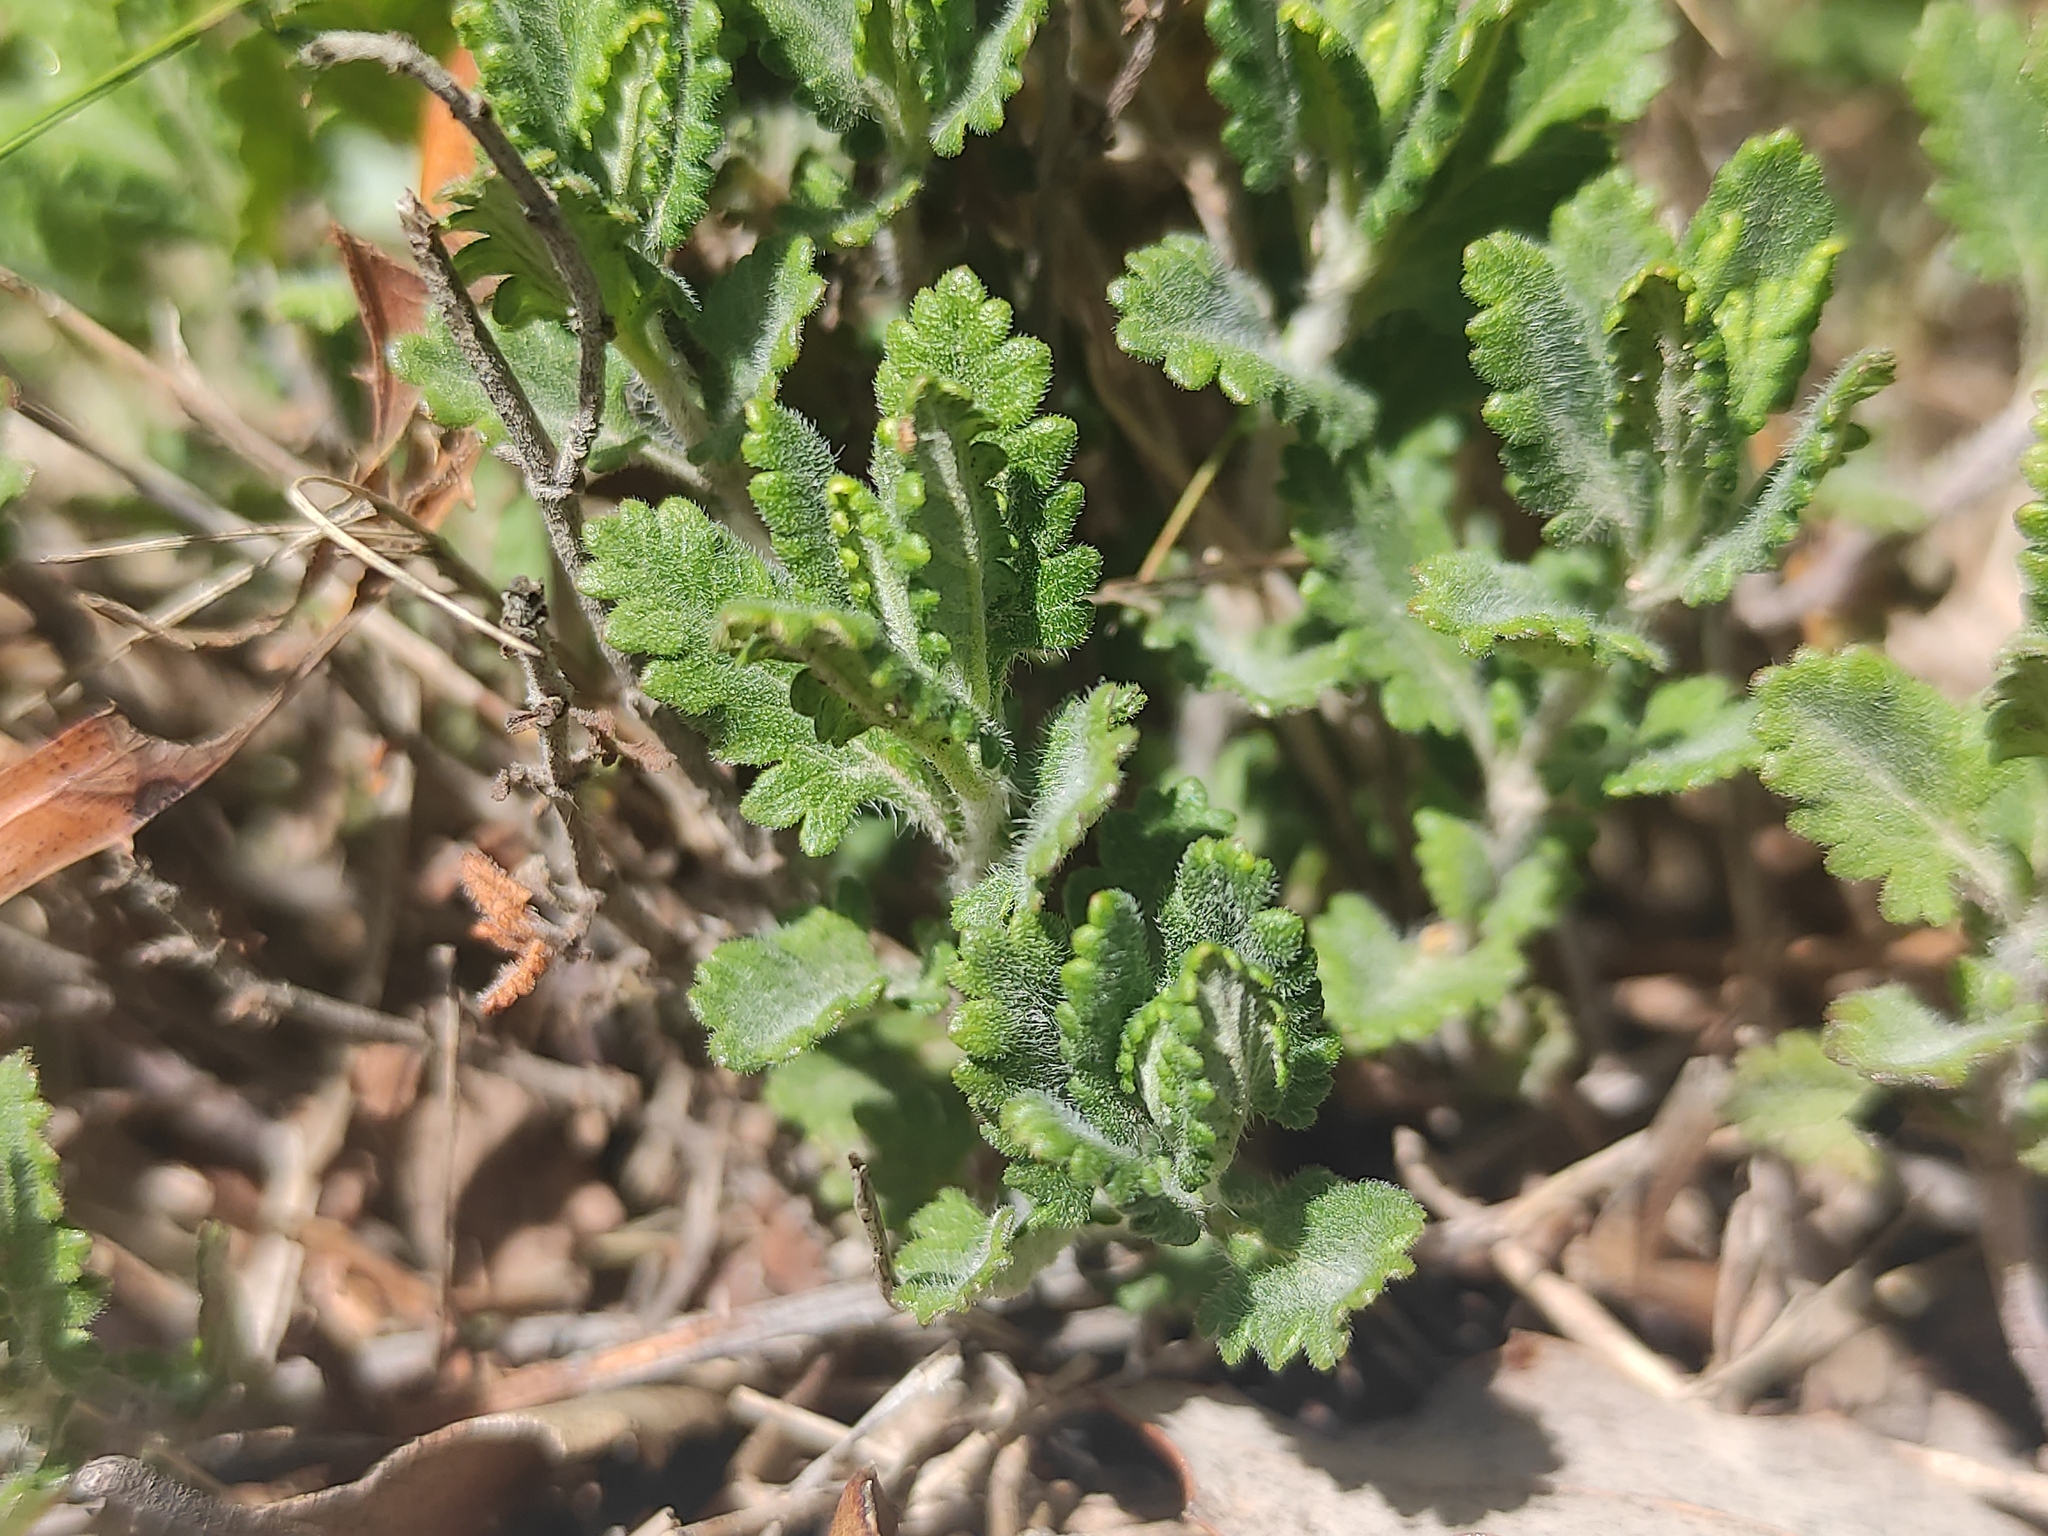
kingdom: Plantae
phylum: Tracheophyta
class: Magnoliopsida
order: Lamiales
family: Lamiaceae
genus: Teucrium
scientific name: Teucrium chamaedrys
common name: Wall germander
